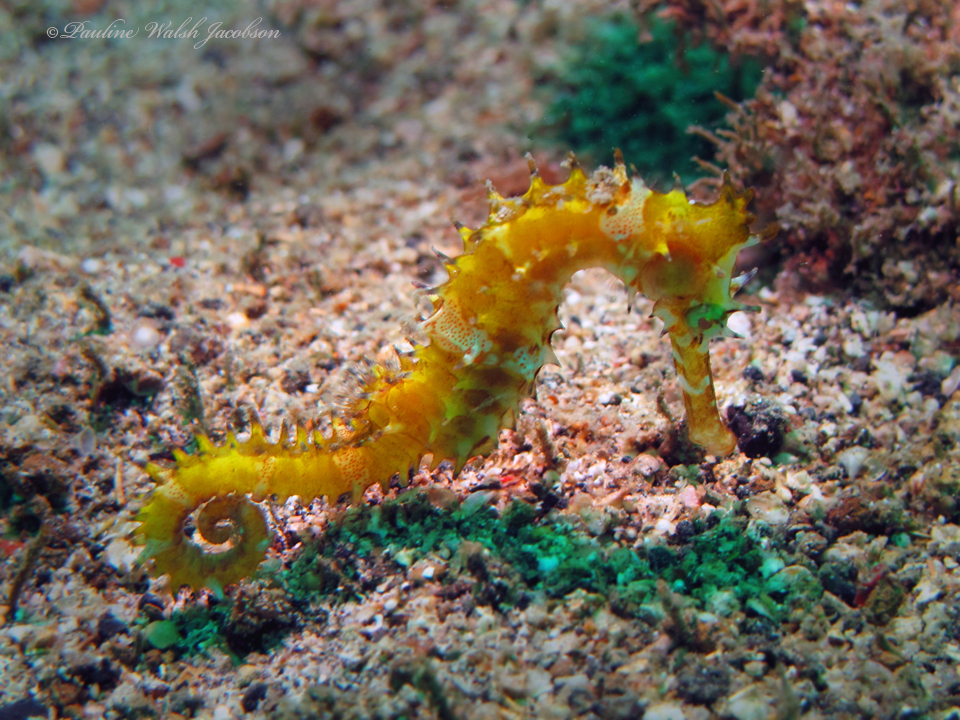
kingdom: Animalia
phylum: Chordata
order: Syngnathiformes
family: Syngnathidae
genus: Hippocampus
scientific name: Hippocampus histrix
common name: Longspine seahorse
